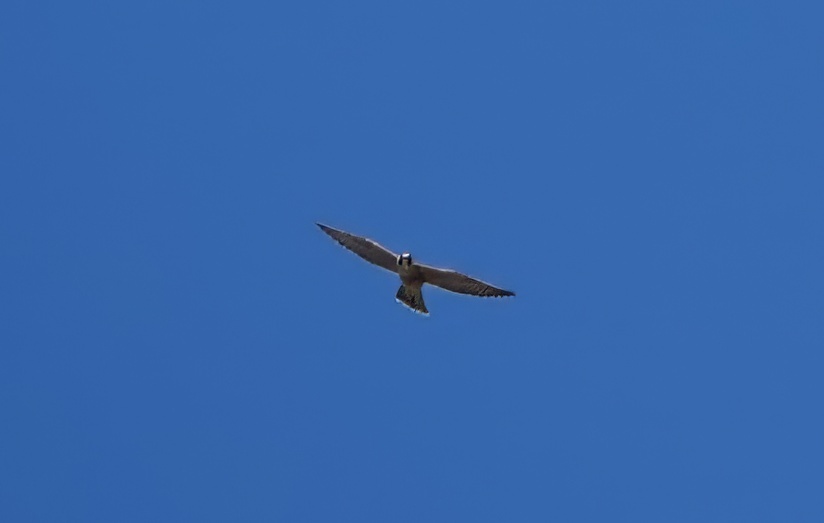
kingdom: Animalia
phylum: Chordata
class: Aves
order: Falconiformes
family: Falconidae
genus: Falco
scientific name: Falco peregrinus
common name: Peregrine falcon
